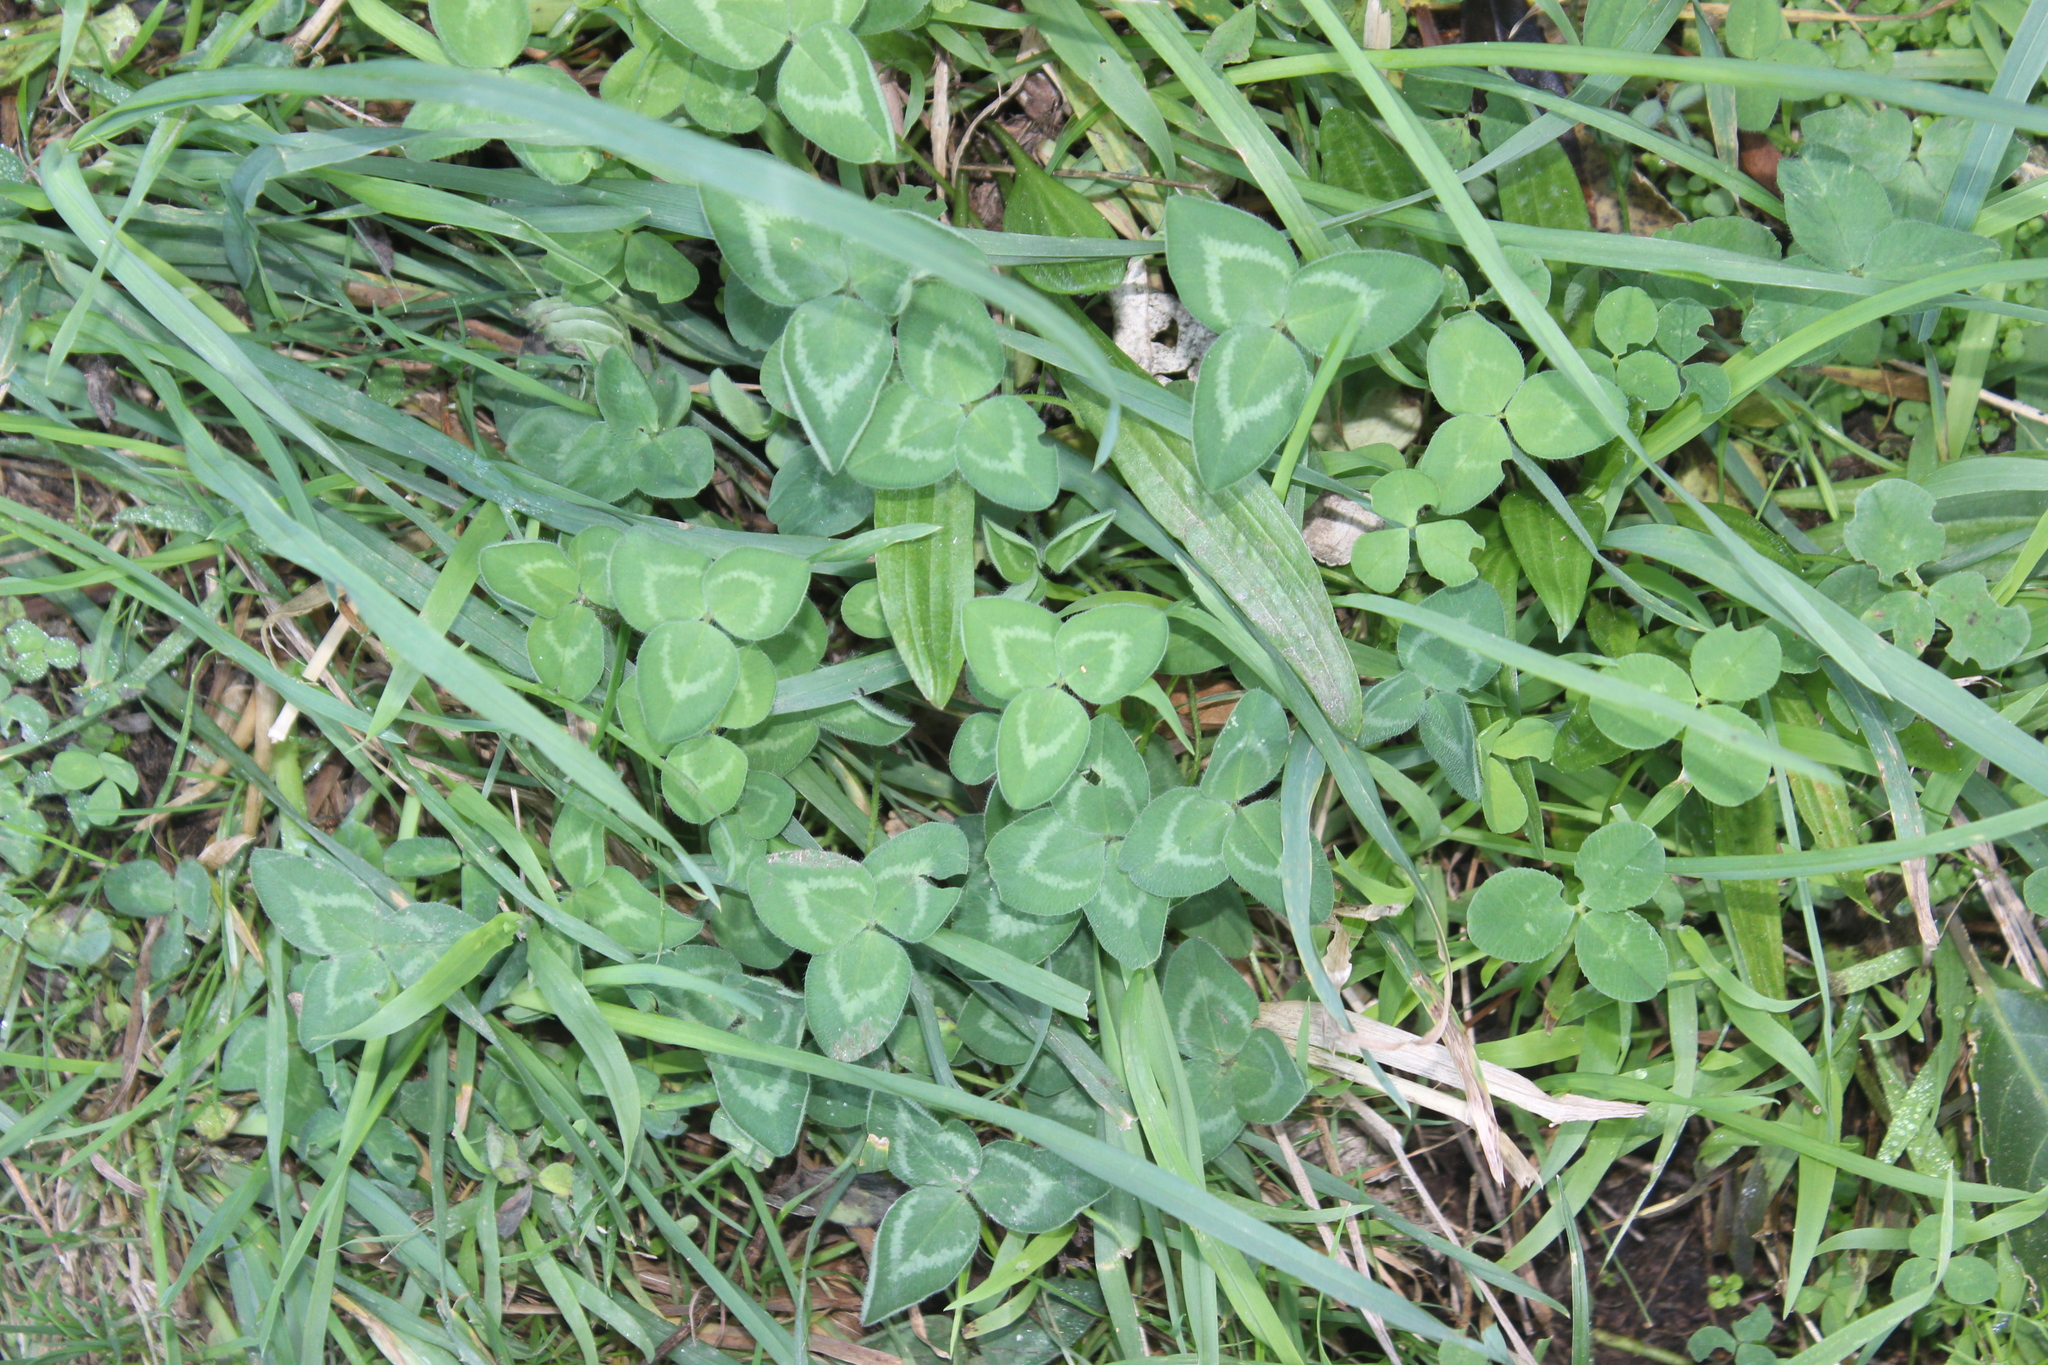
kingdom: Plantae
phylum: Tracheophyta
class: Magnoliopsida
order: Fabales
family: Fabaceae
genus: Trifolium
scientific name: Trifolium pratense
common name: Red clover
